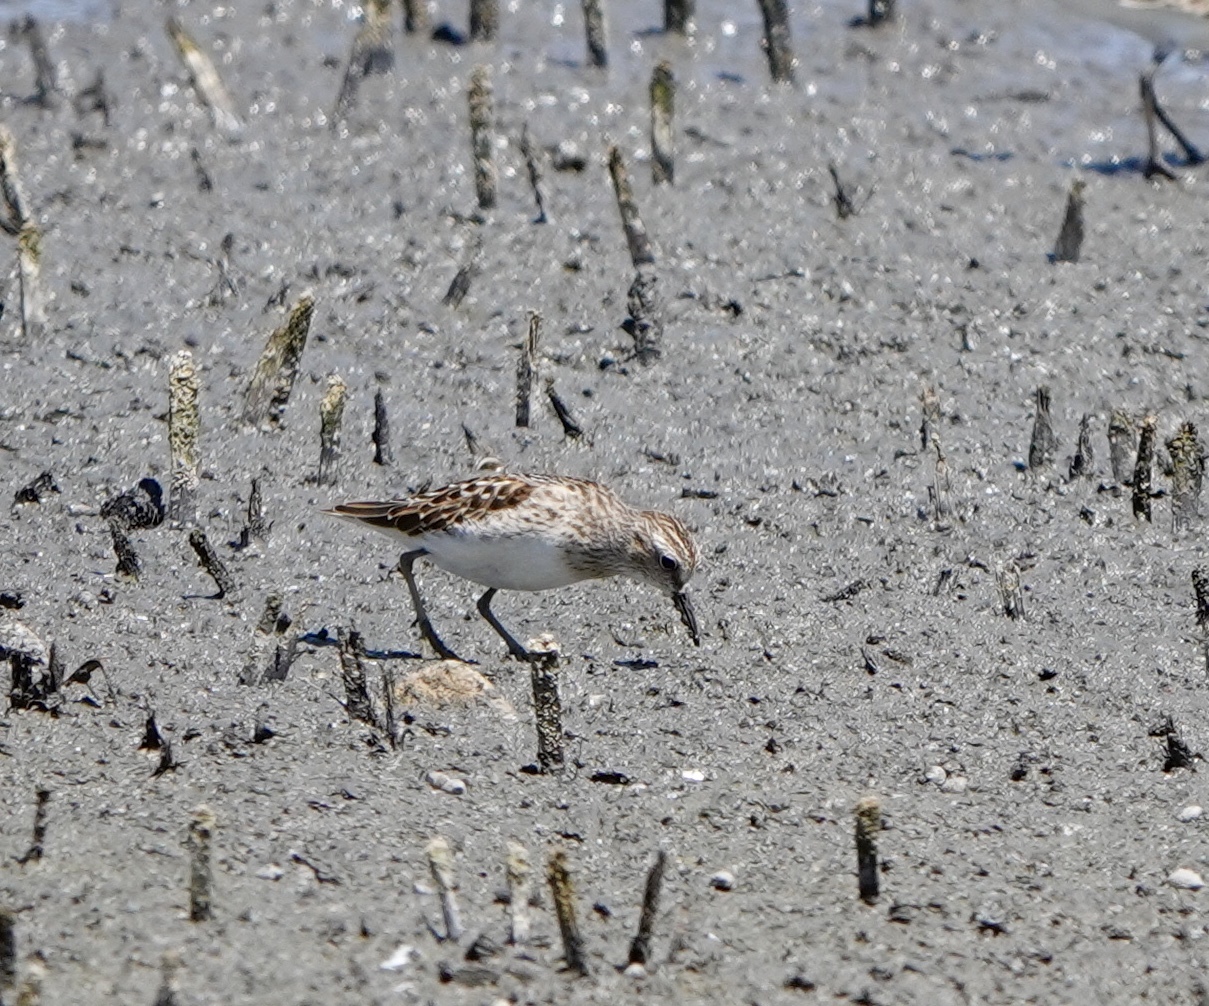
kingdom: Animalia
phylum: Chordata
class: Aves
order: Charadriiformes
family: Scolopacidae
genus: Calidris
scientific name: Calidris minutilla
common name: Least sandpiper
